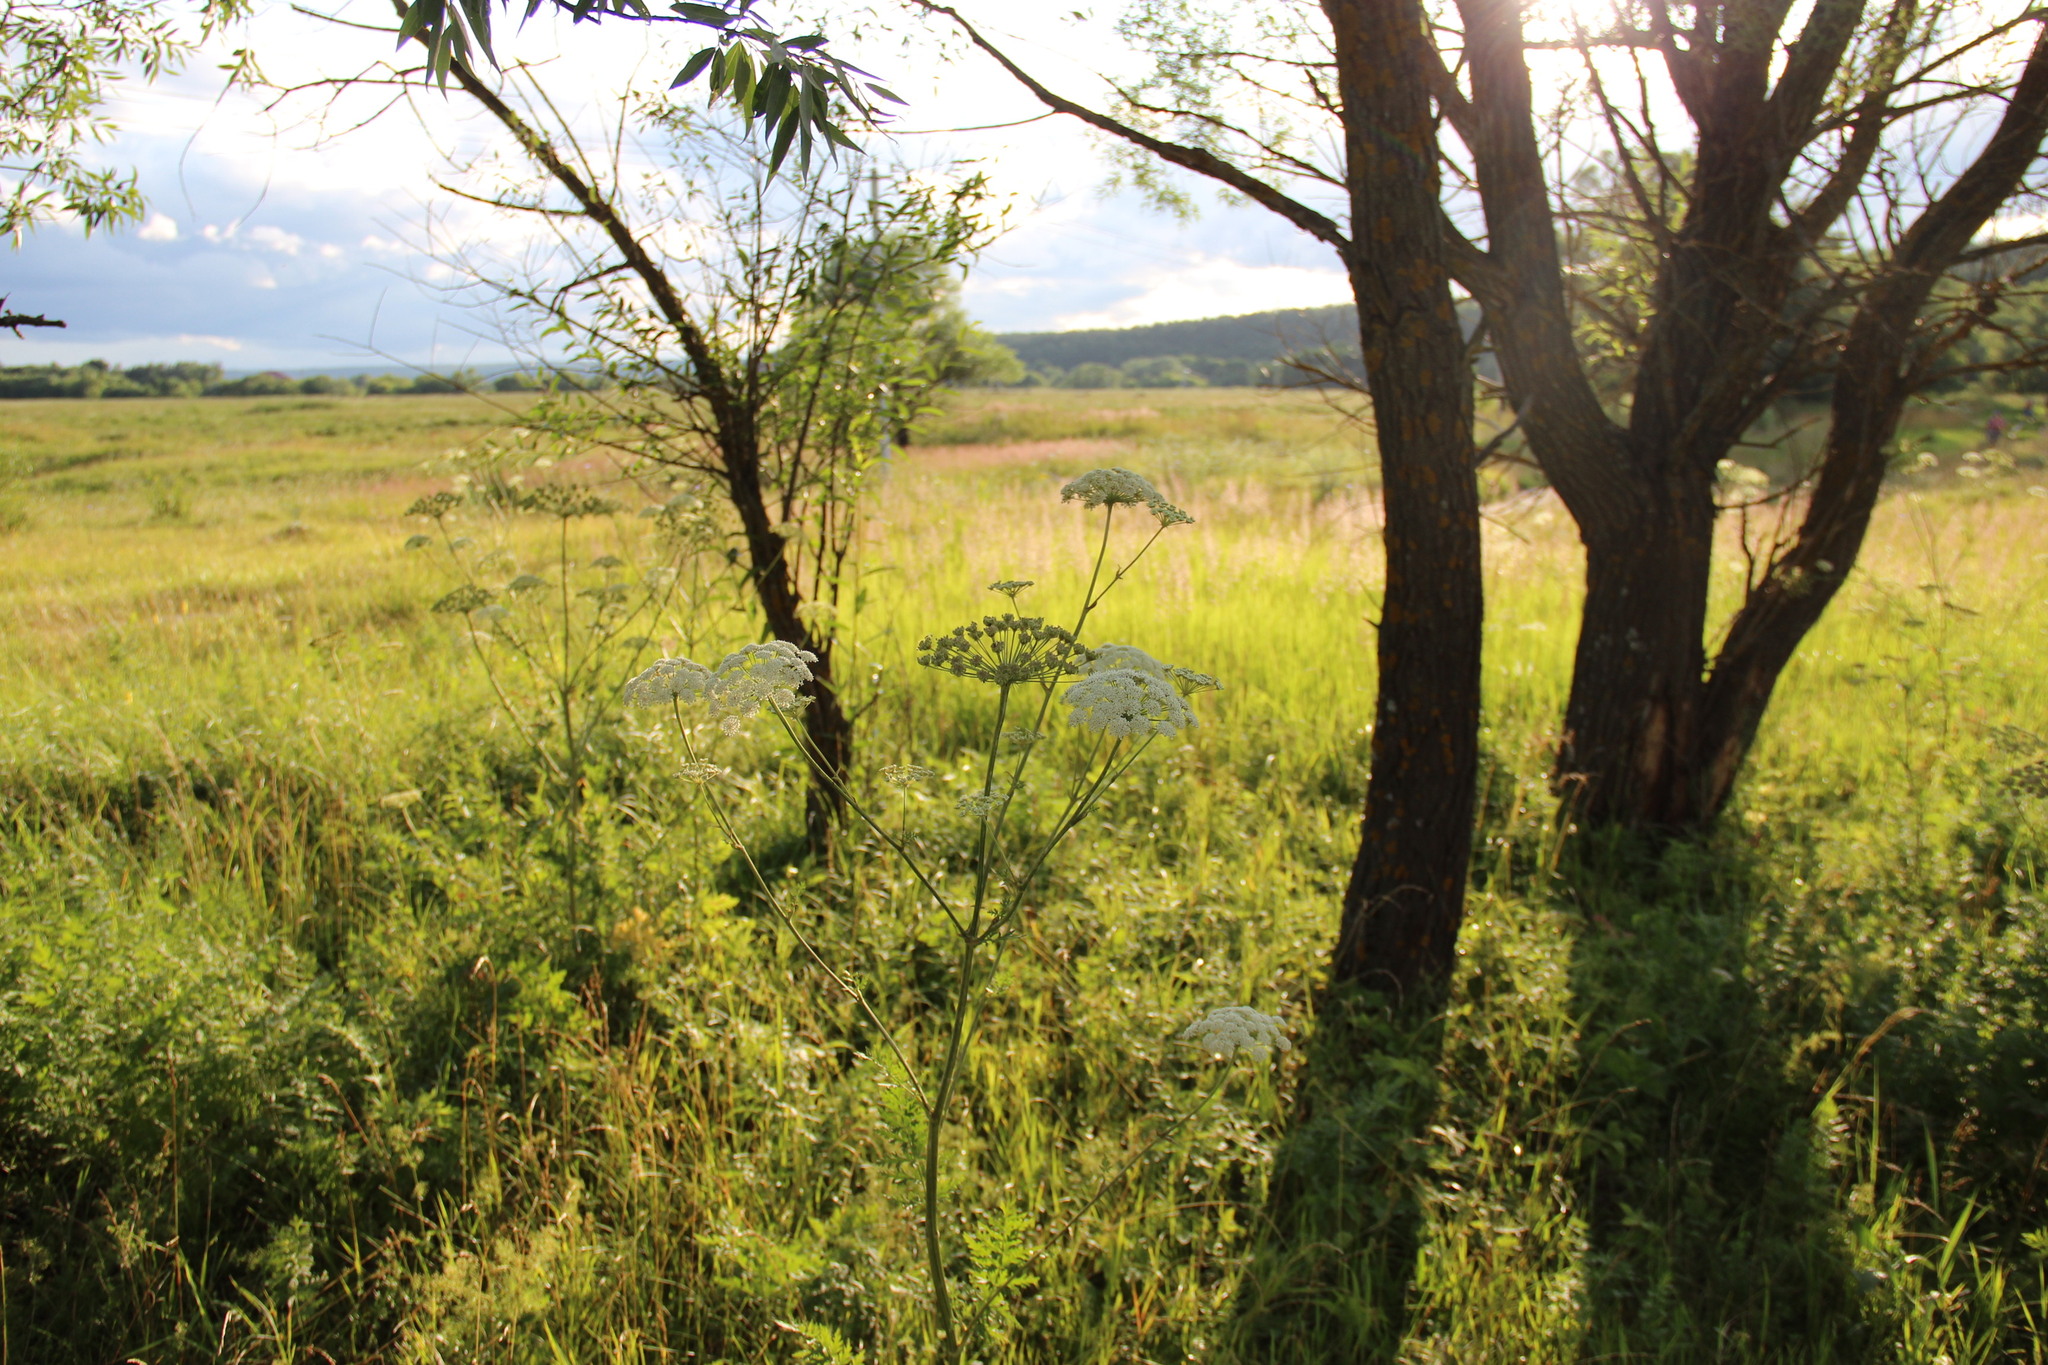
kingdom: Plantae
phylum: Tracheophyta
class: Magnoliopsida
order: Apiales
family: Apiaceae
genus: Seseli
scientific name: Seseli libanotis
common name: Mooncarrot
